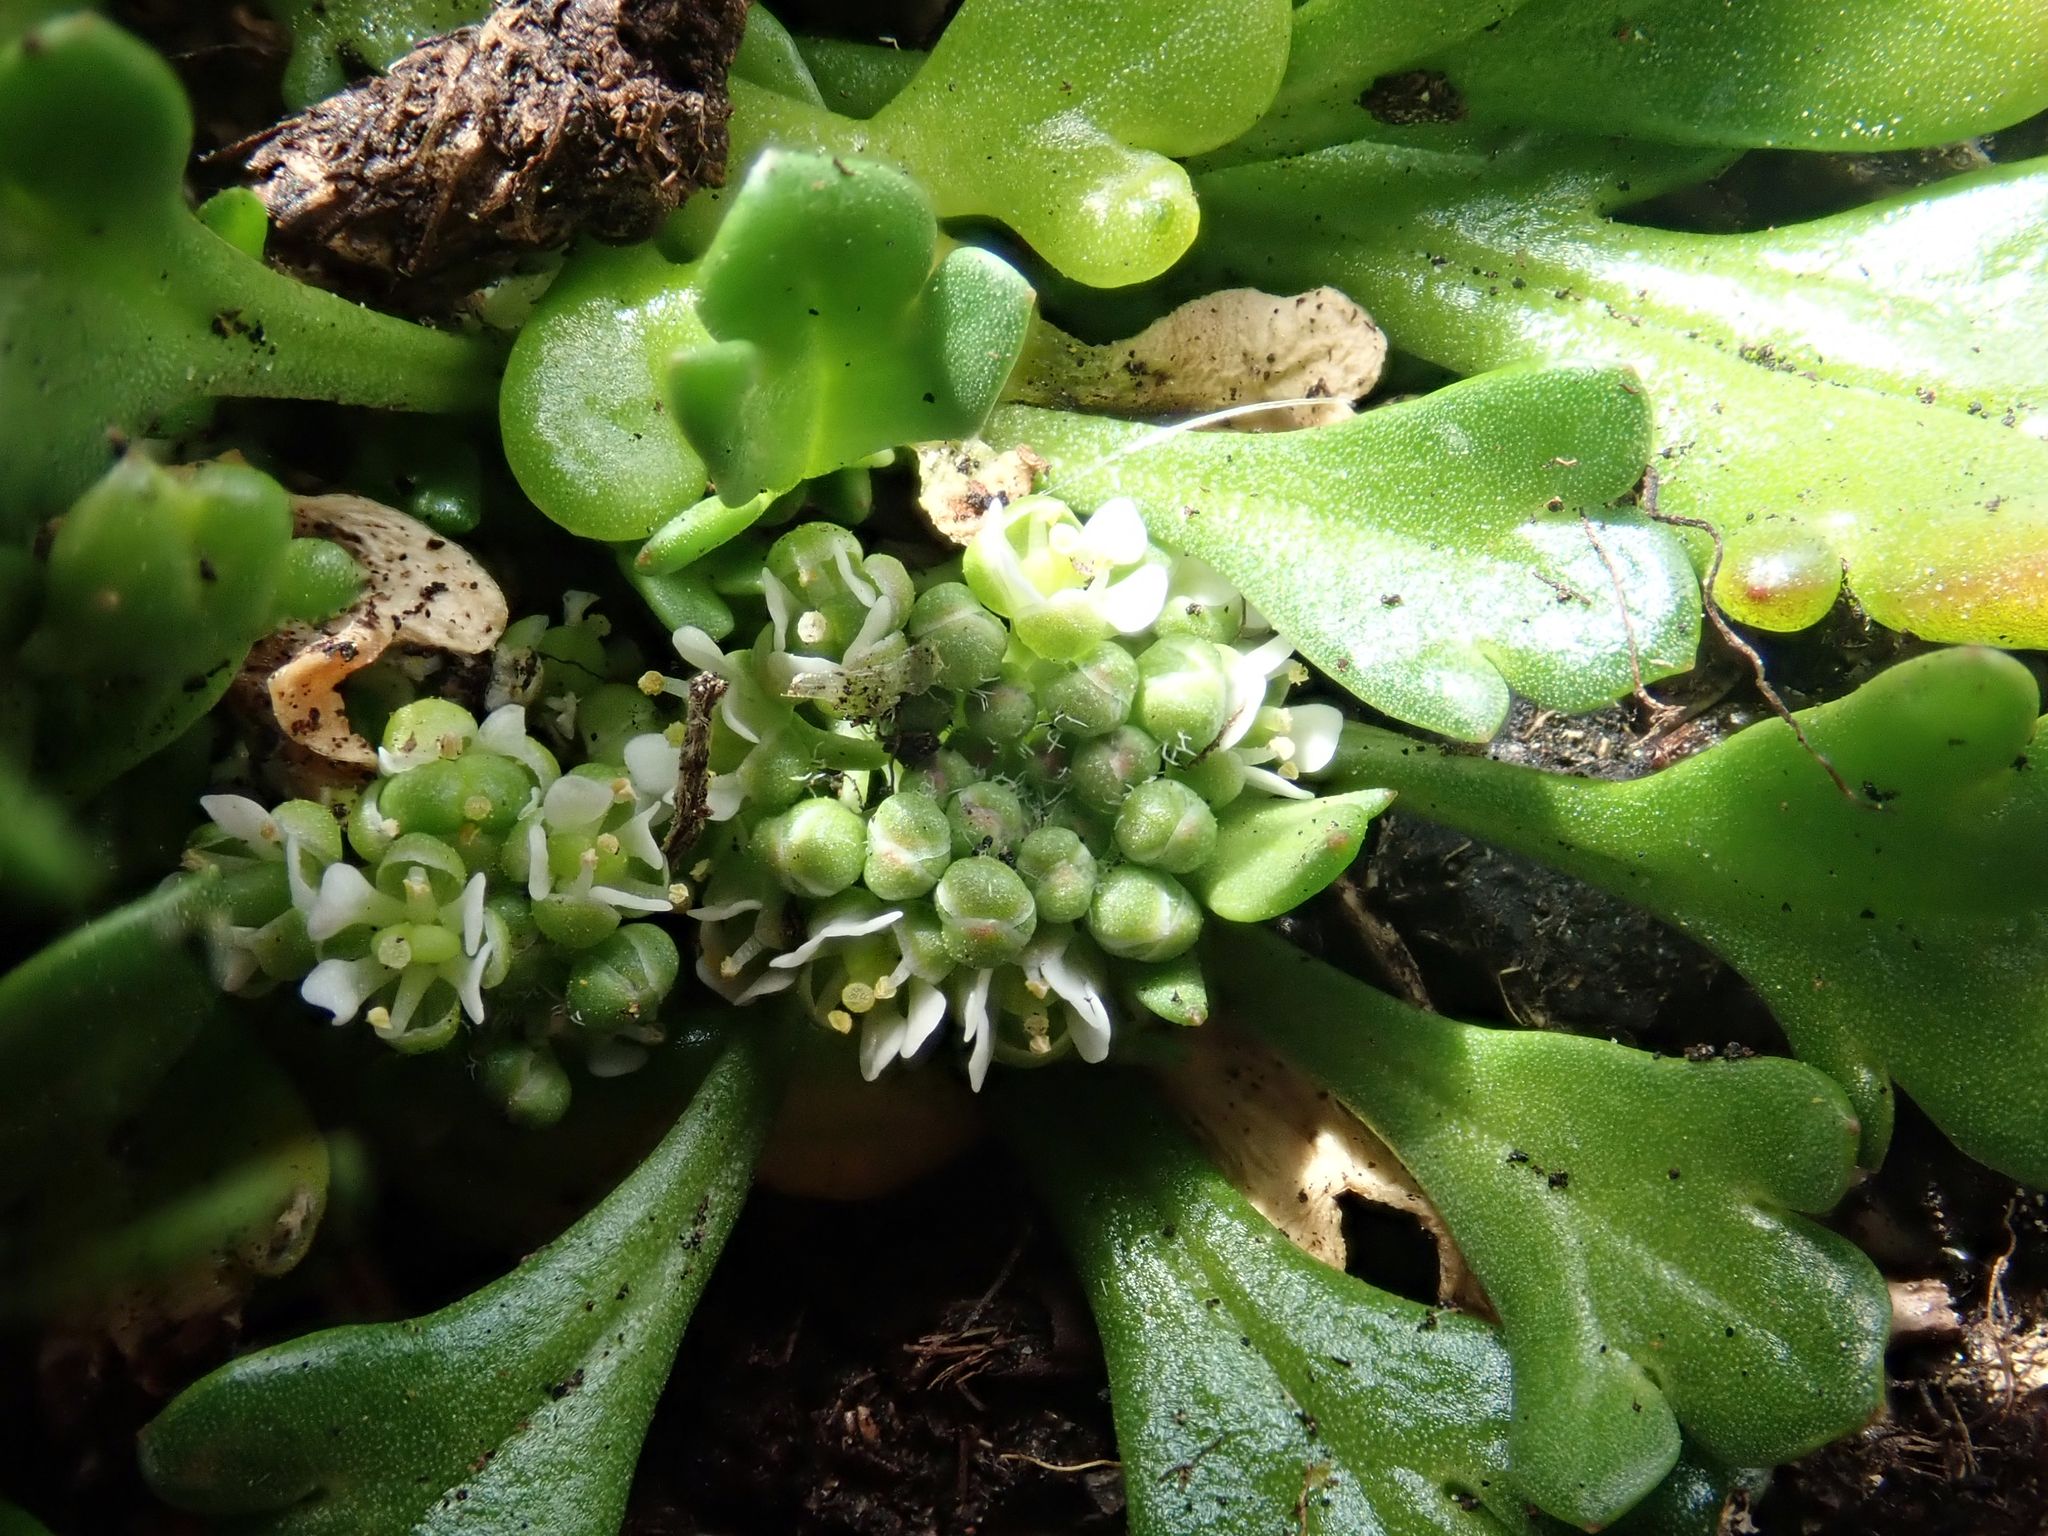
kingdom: Plantae
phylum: Tracheophyta
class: Magnoliopsida
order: Brassicales
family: Brassicaceae
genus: Lepidium
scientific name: Lepidium flexicaule
